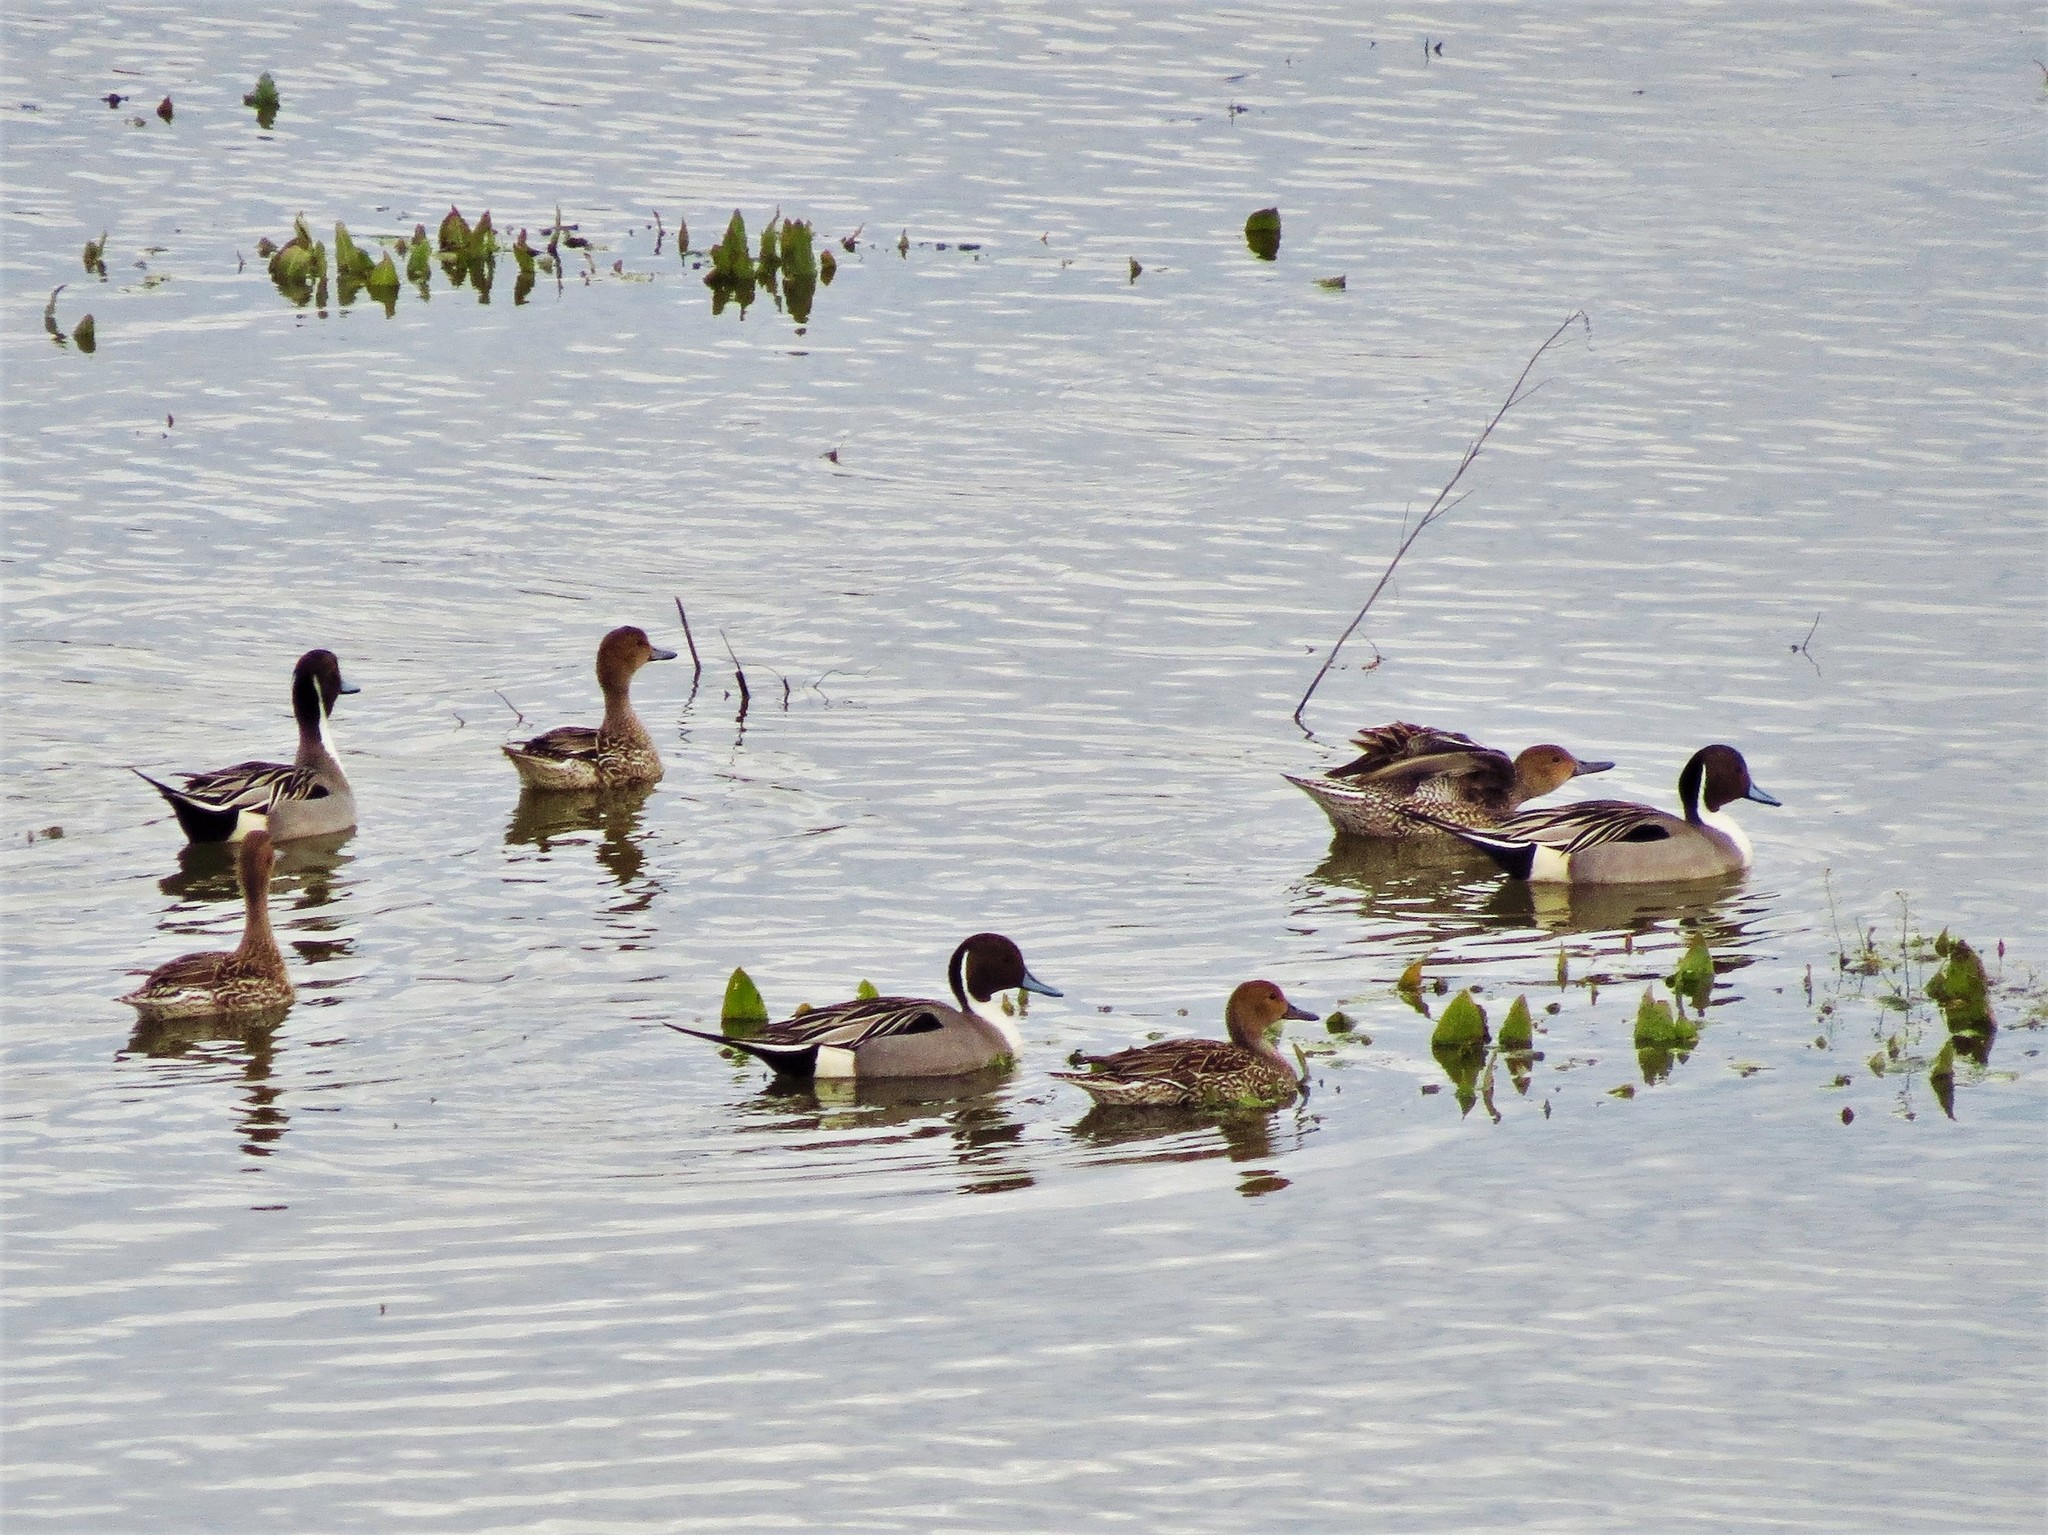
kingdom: Animalia
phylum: Chordata
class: Aves
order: Anseriformes
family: Anatidae
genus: Anas
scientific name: Anas acuta
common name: Northern pintail
